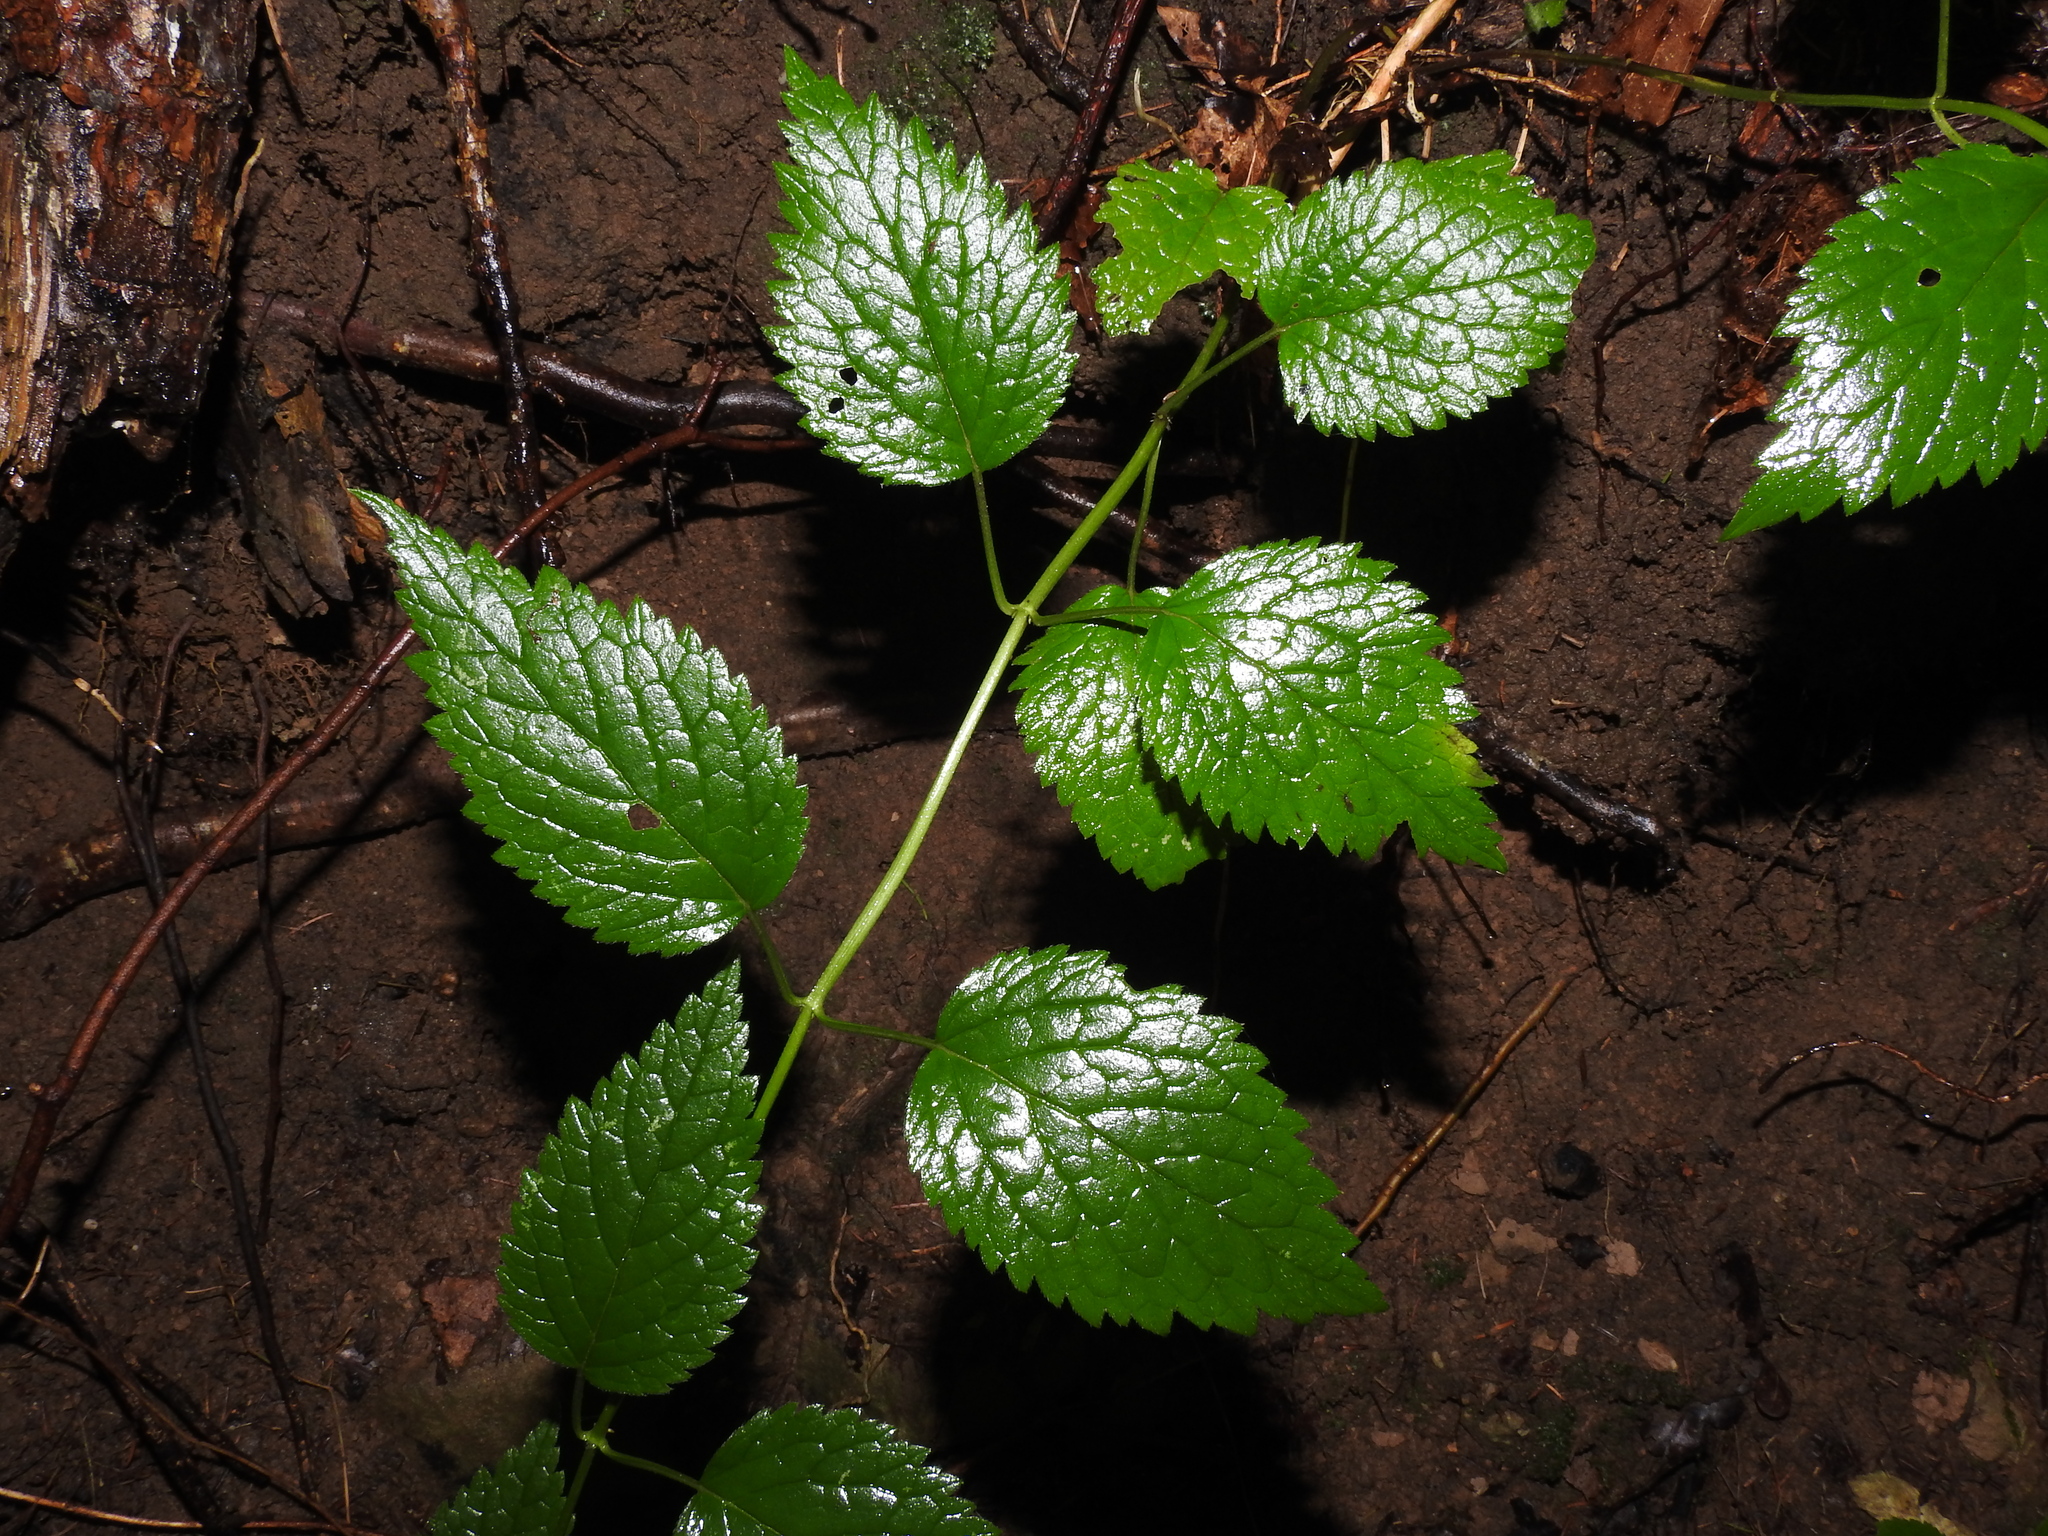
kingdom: Plantae
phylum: Tracheophyta
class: Magnoliopsida
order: Lamiales
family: Lamiaceae
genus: Lamium
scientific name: Lamium galeobdolon
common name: Yellow archangel
